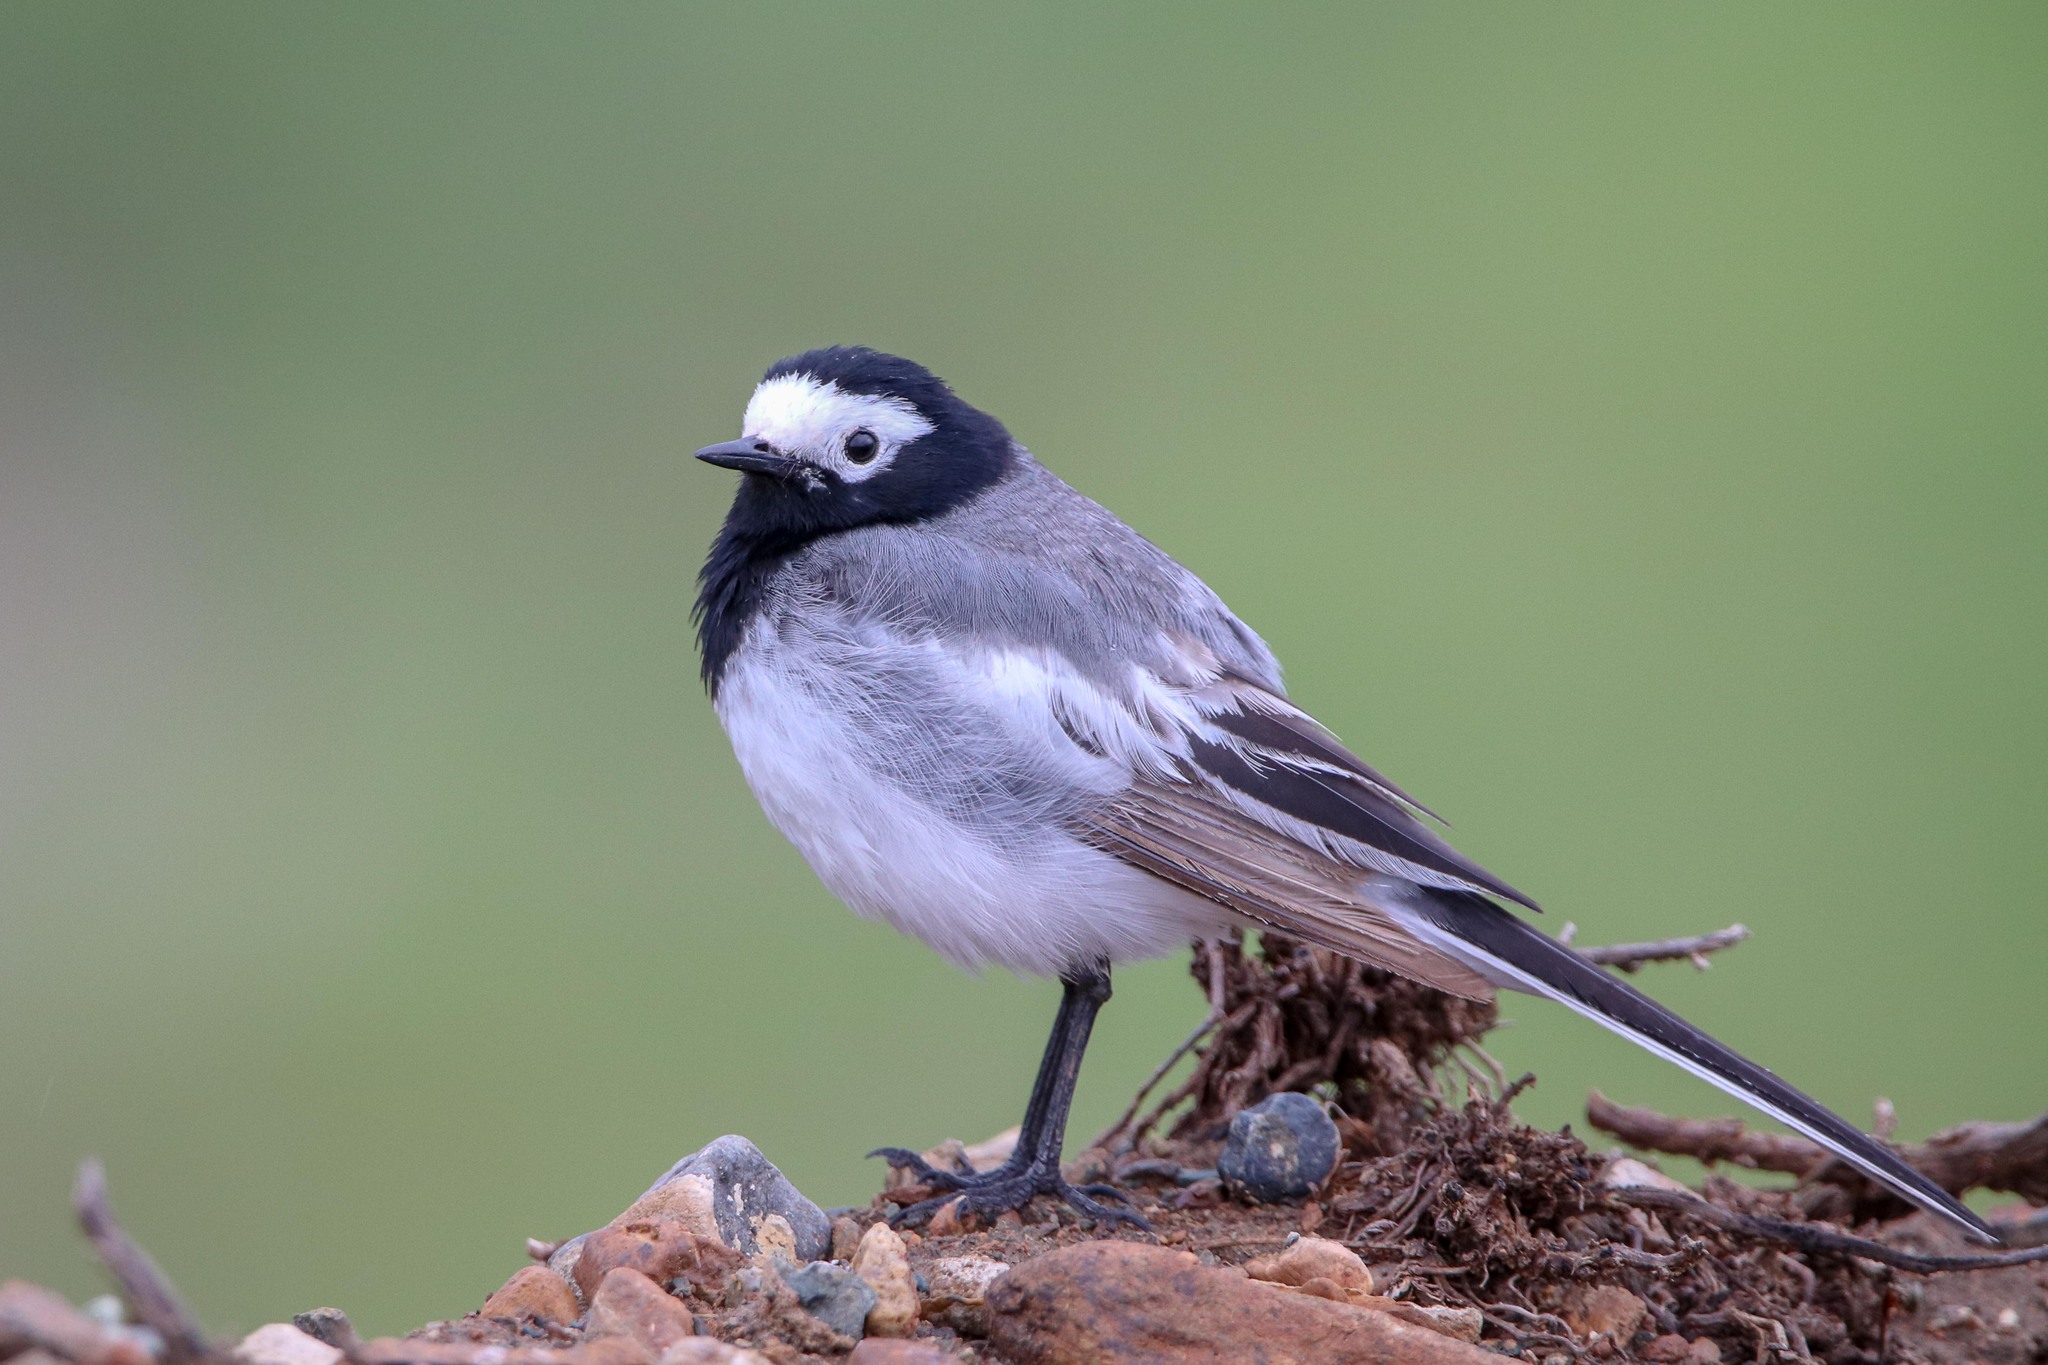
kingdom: Animalia
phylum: Chordata
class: Aves
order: Passeriformes
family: Motacillidae
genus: Motacilla
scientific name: Motacilla alba
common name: White wagtail
